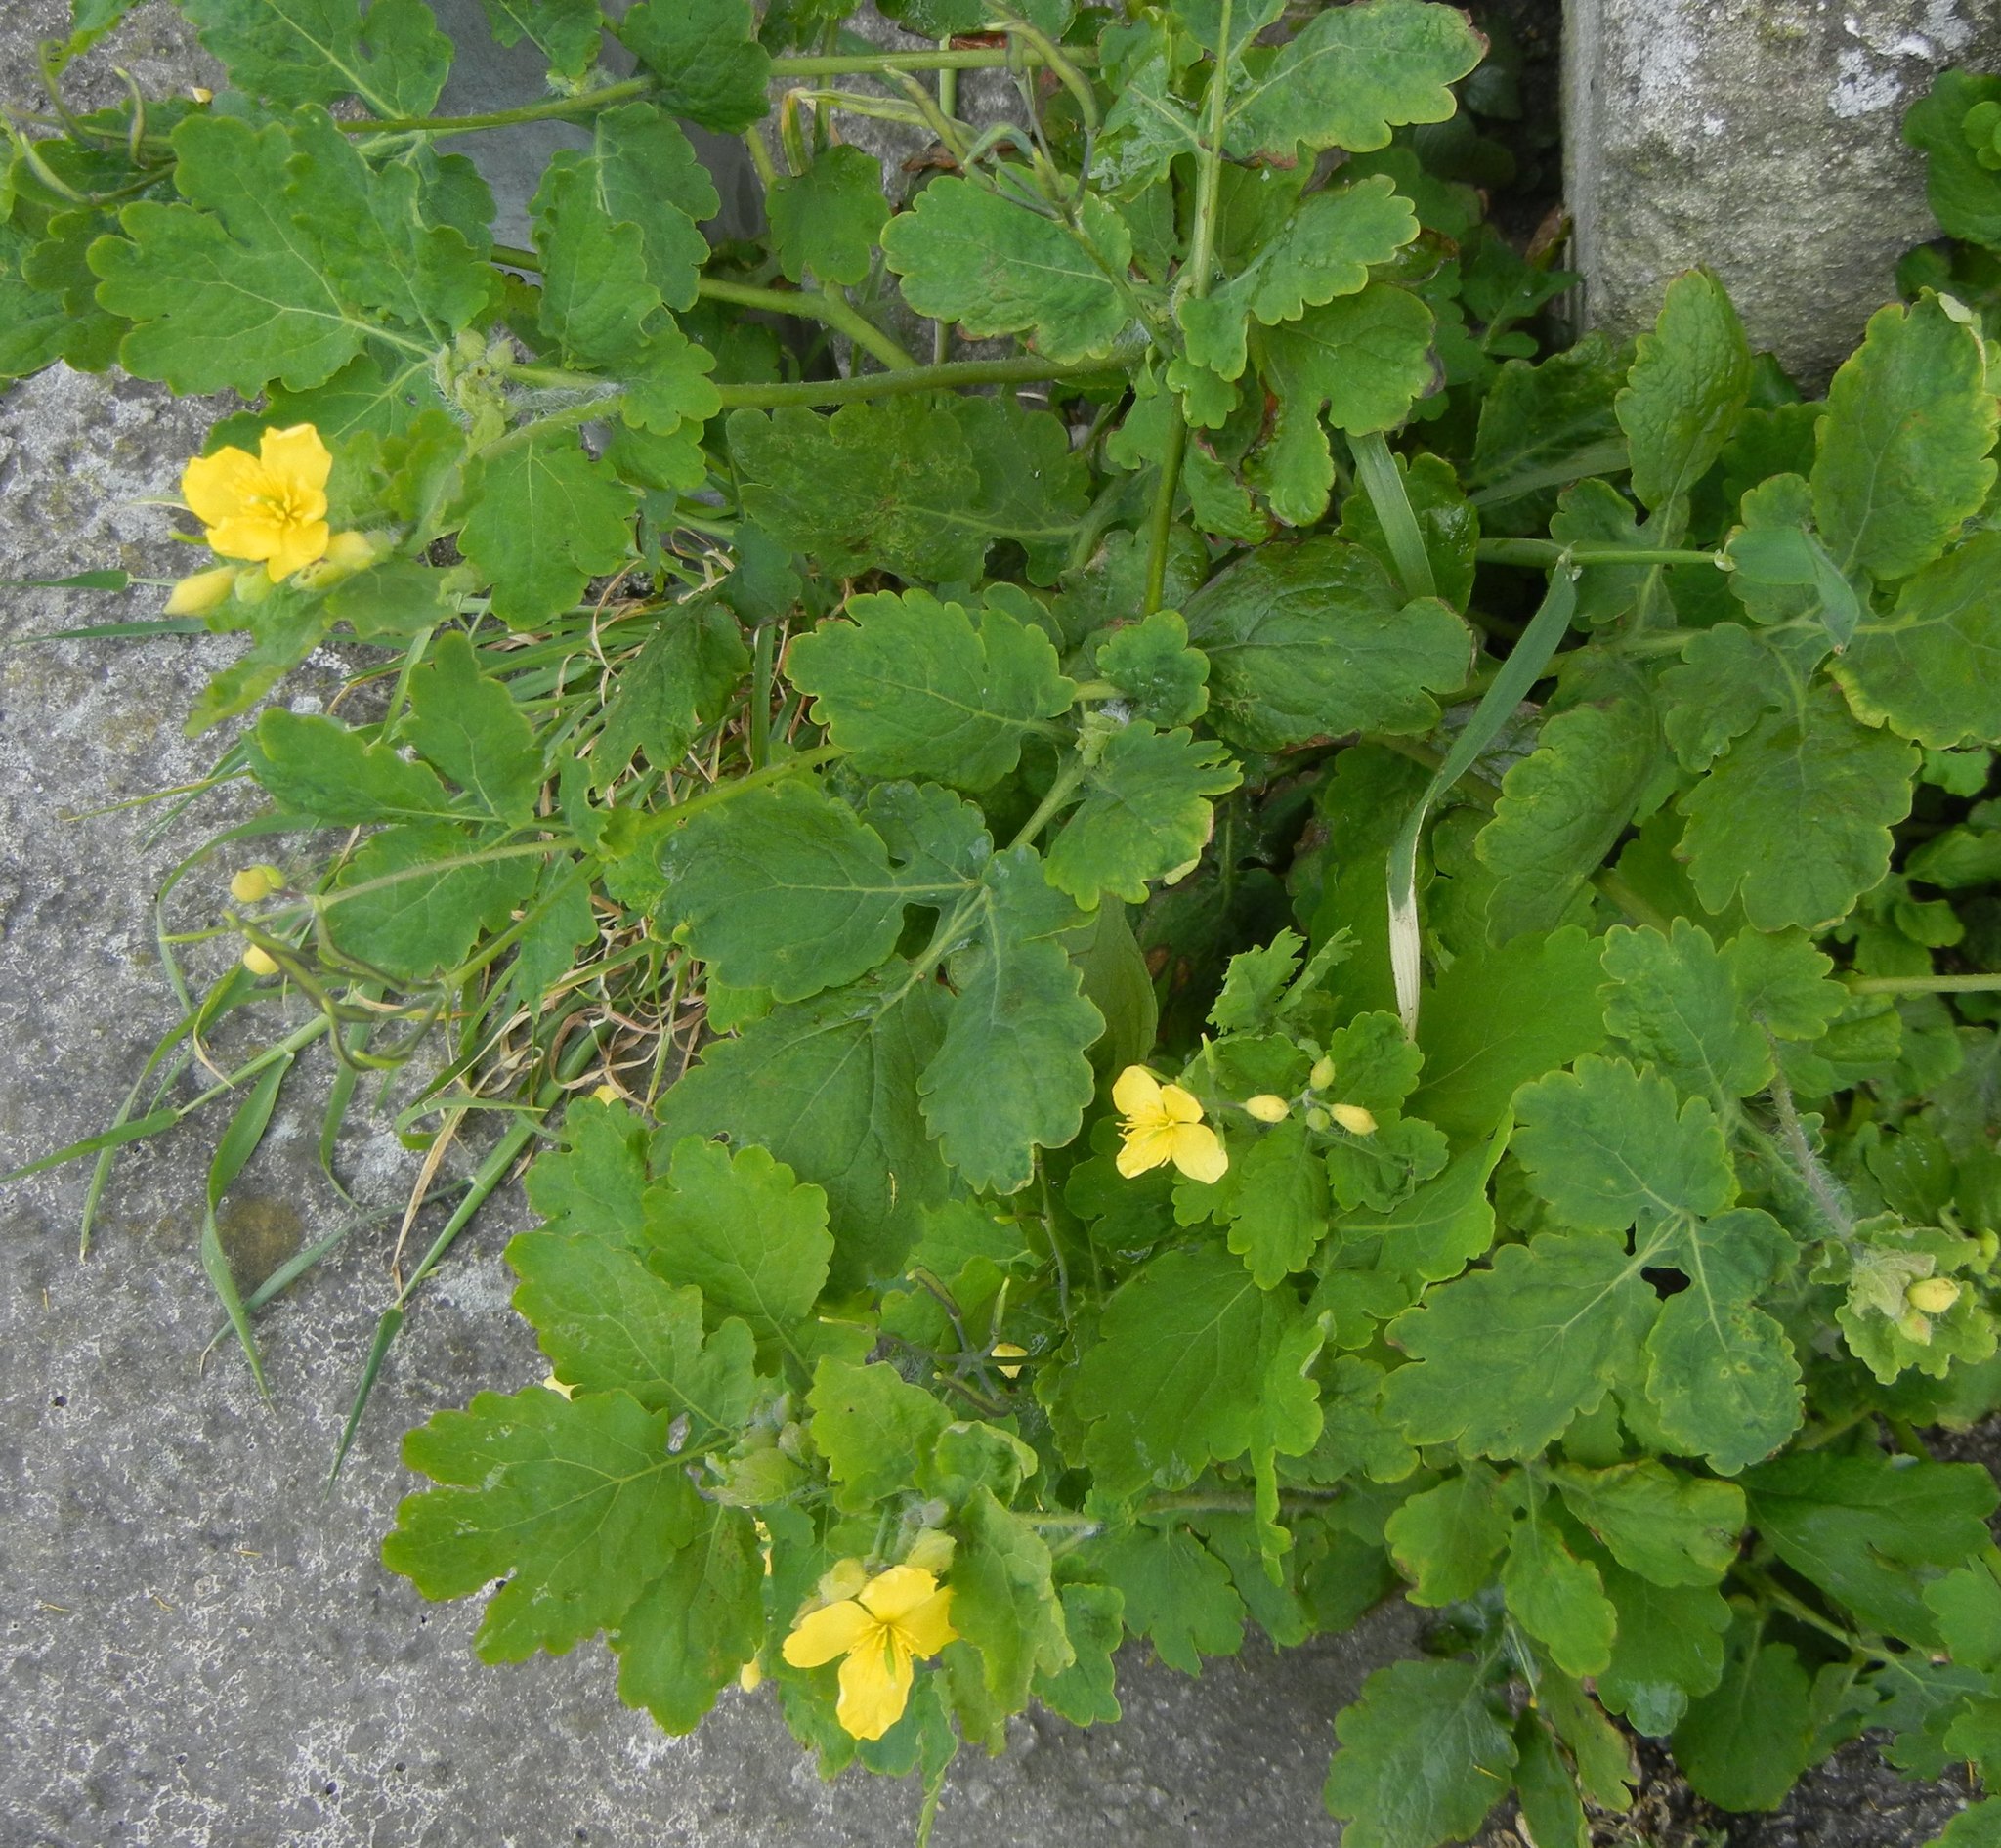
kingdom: Plantae
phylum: Tracheophyta
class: Magnoliopsida
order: Ranunculales
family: Papaveraceae
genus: Chelidonium
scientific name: Chelidonium majus
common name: Greater celandine
